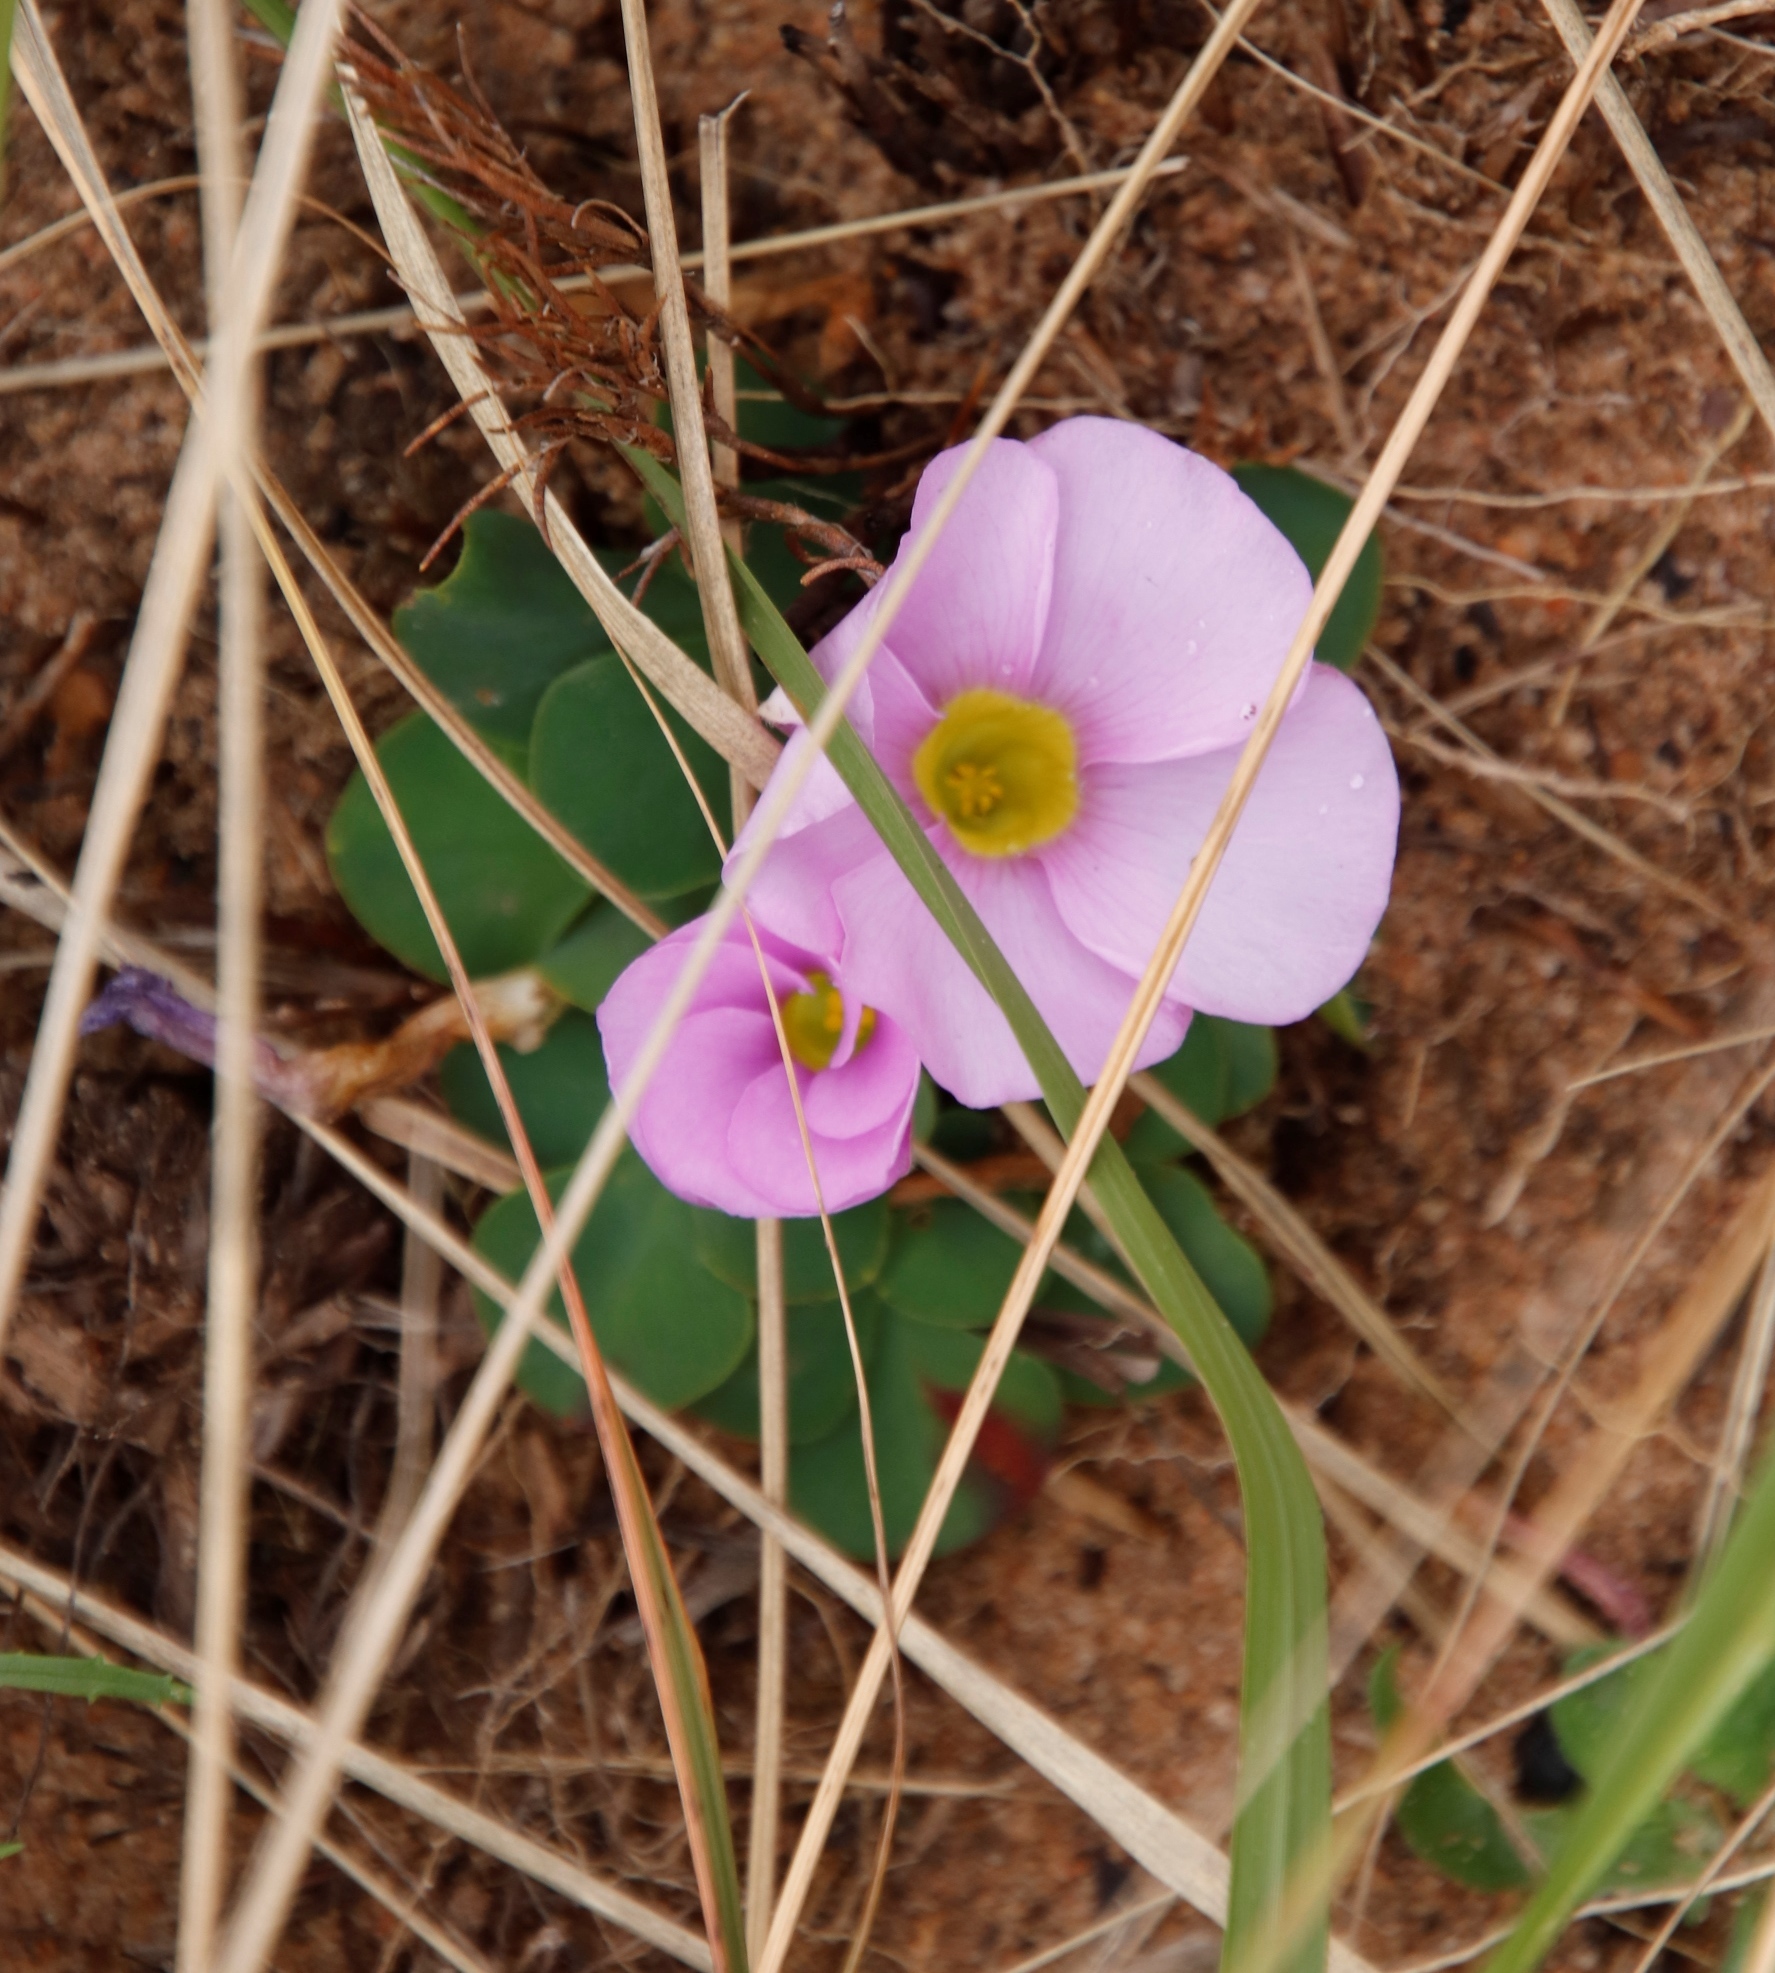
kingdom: Plantae
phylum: Tracheophyta
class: Magnoliopsida
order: Oxalidales
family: Oxalidaceae
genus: Oxalis
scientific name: Oxalis purpurea
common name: Purple woodsorrel
